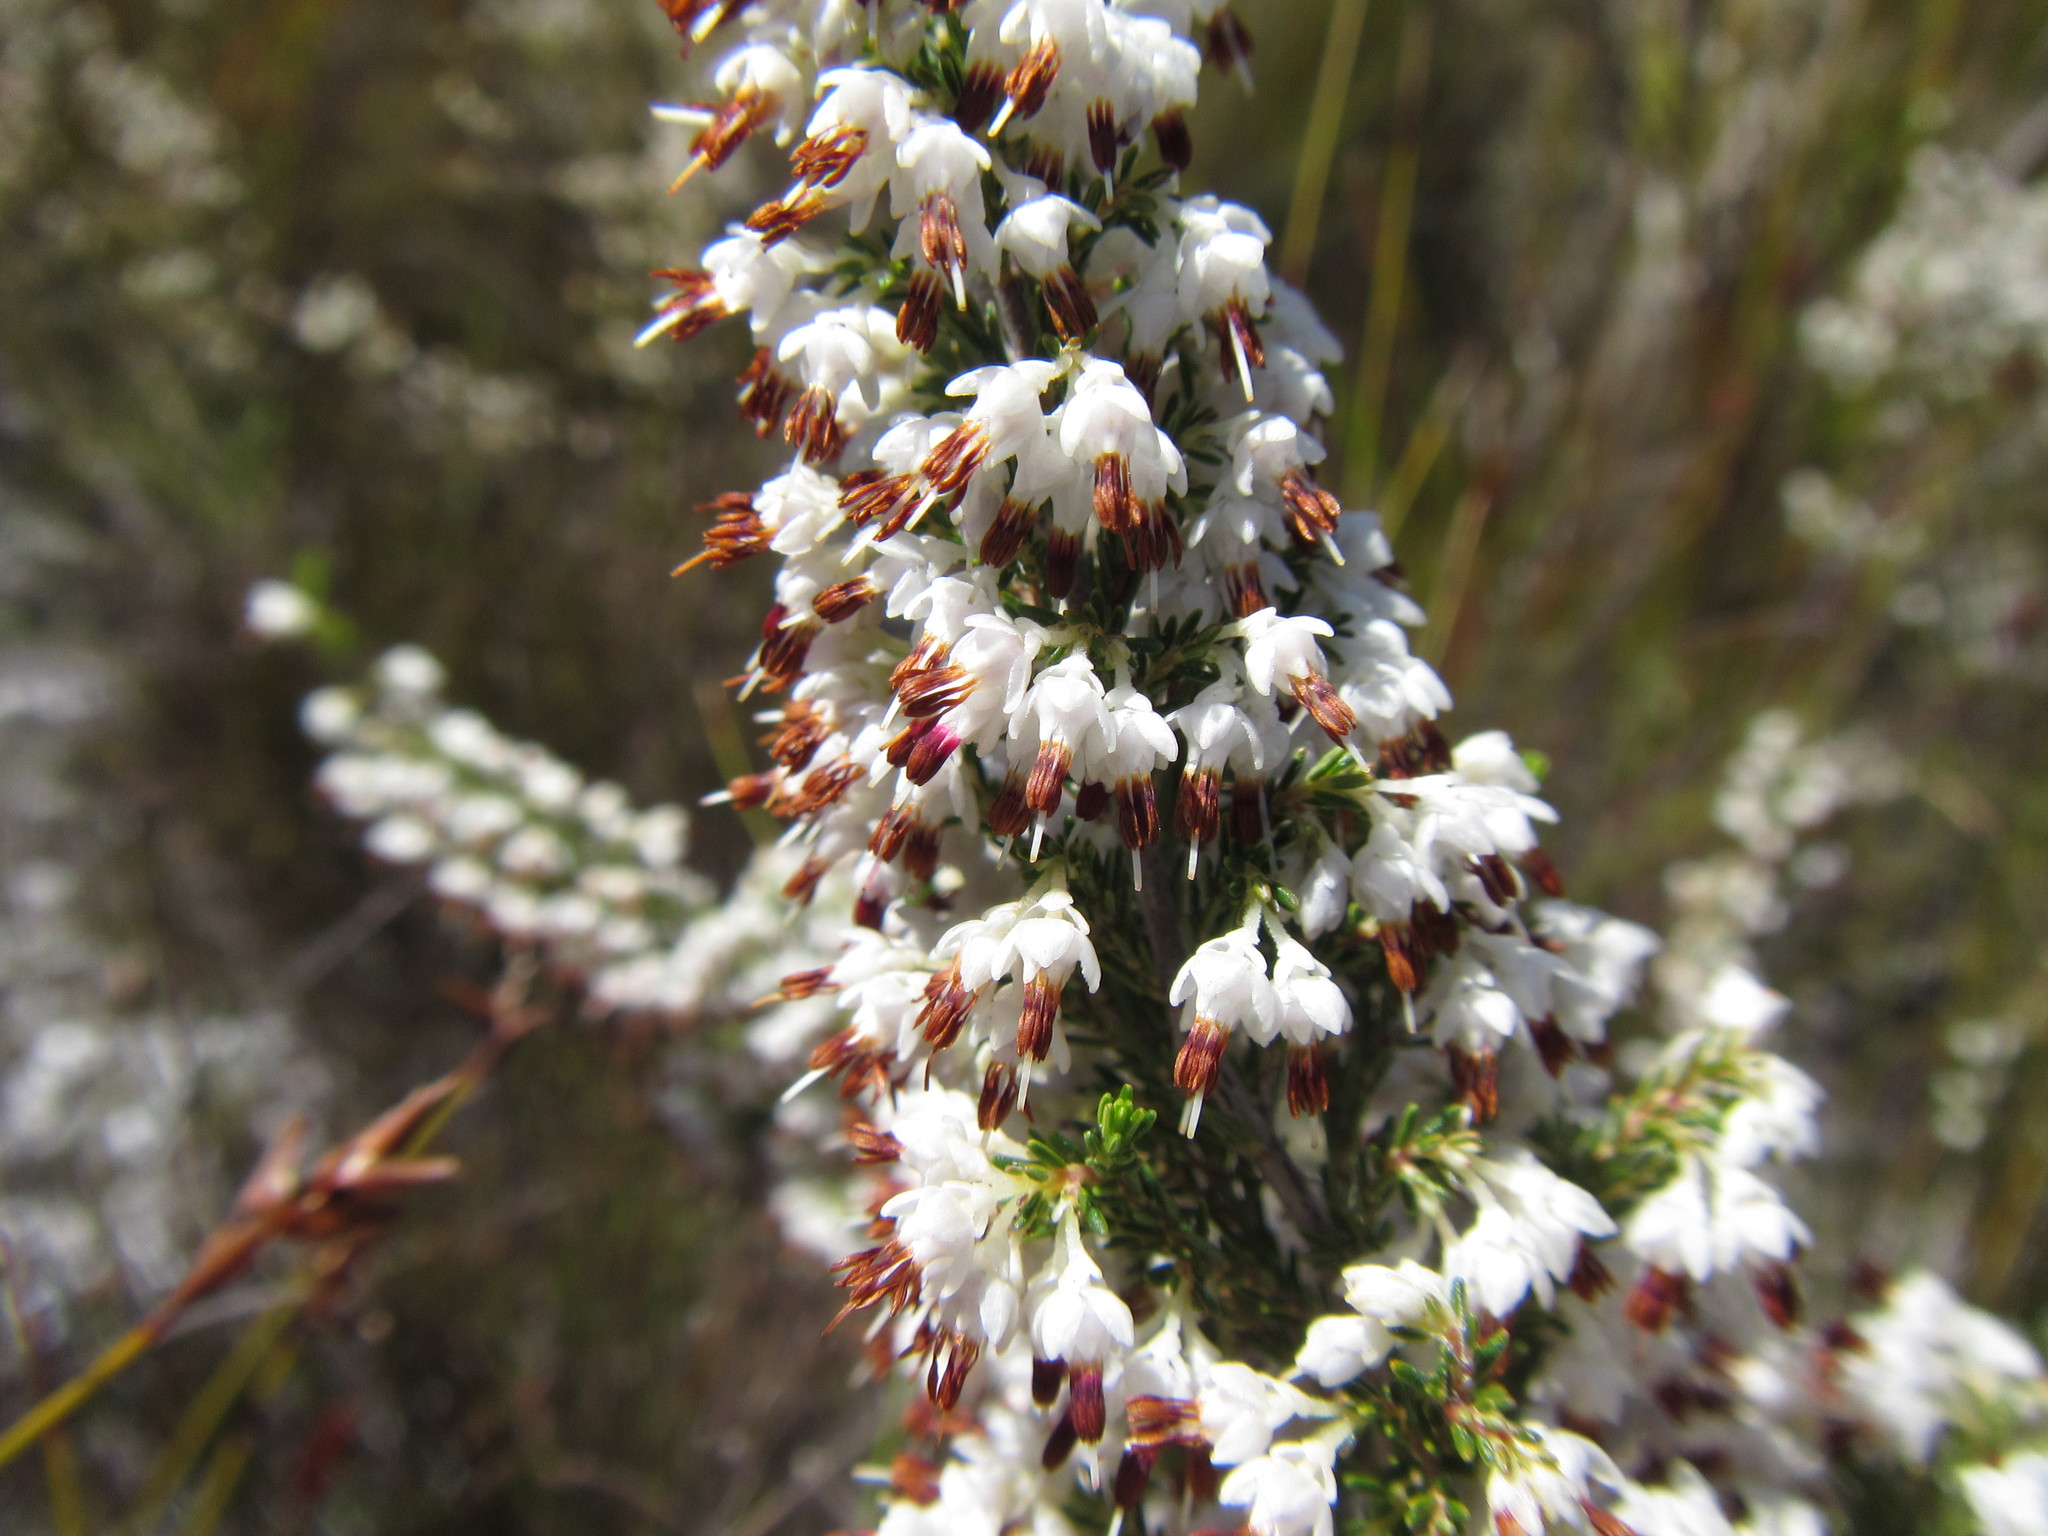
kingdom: Plantae
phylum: Tracheophyta
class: Magnoliopsida
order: Ericales
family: Ericaceae
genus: Erica
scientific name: Erica penicilliformis
